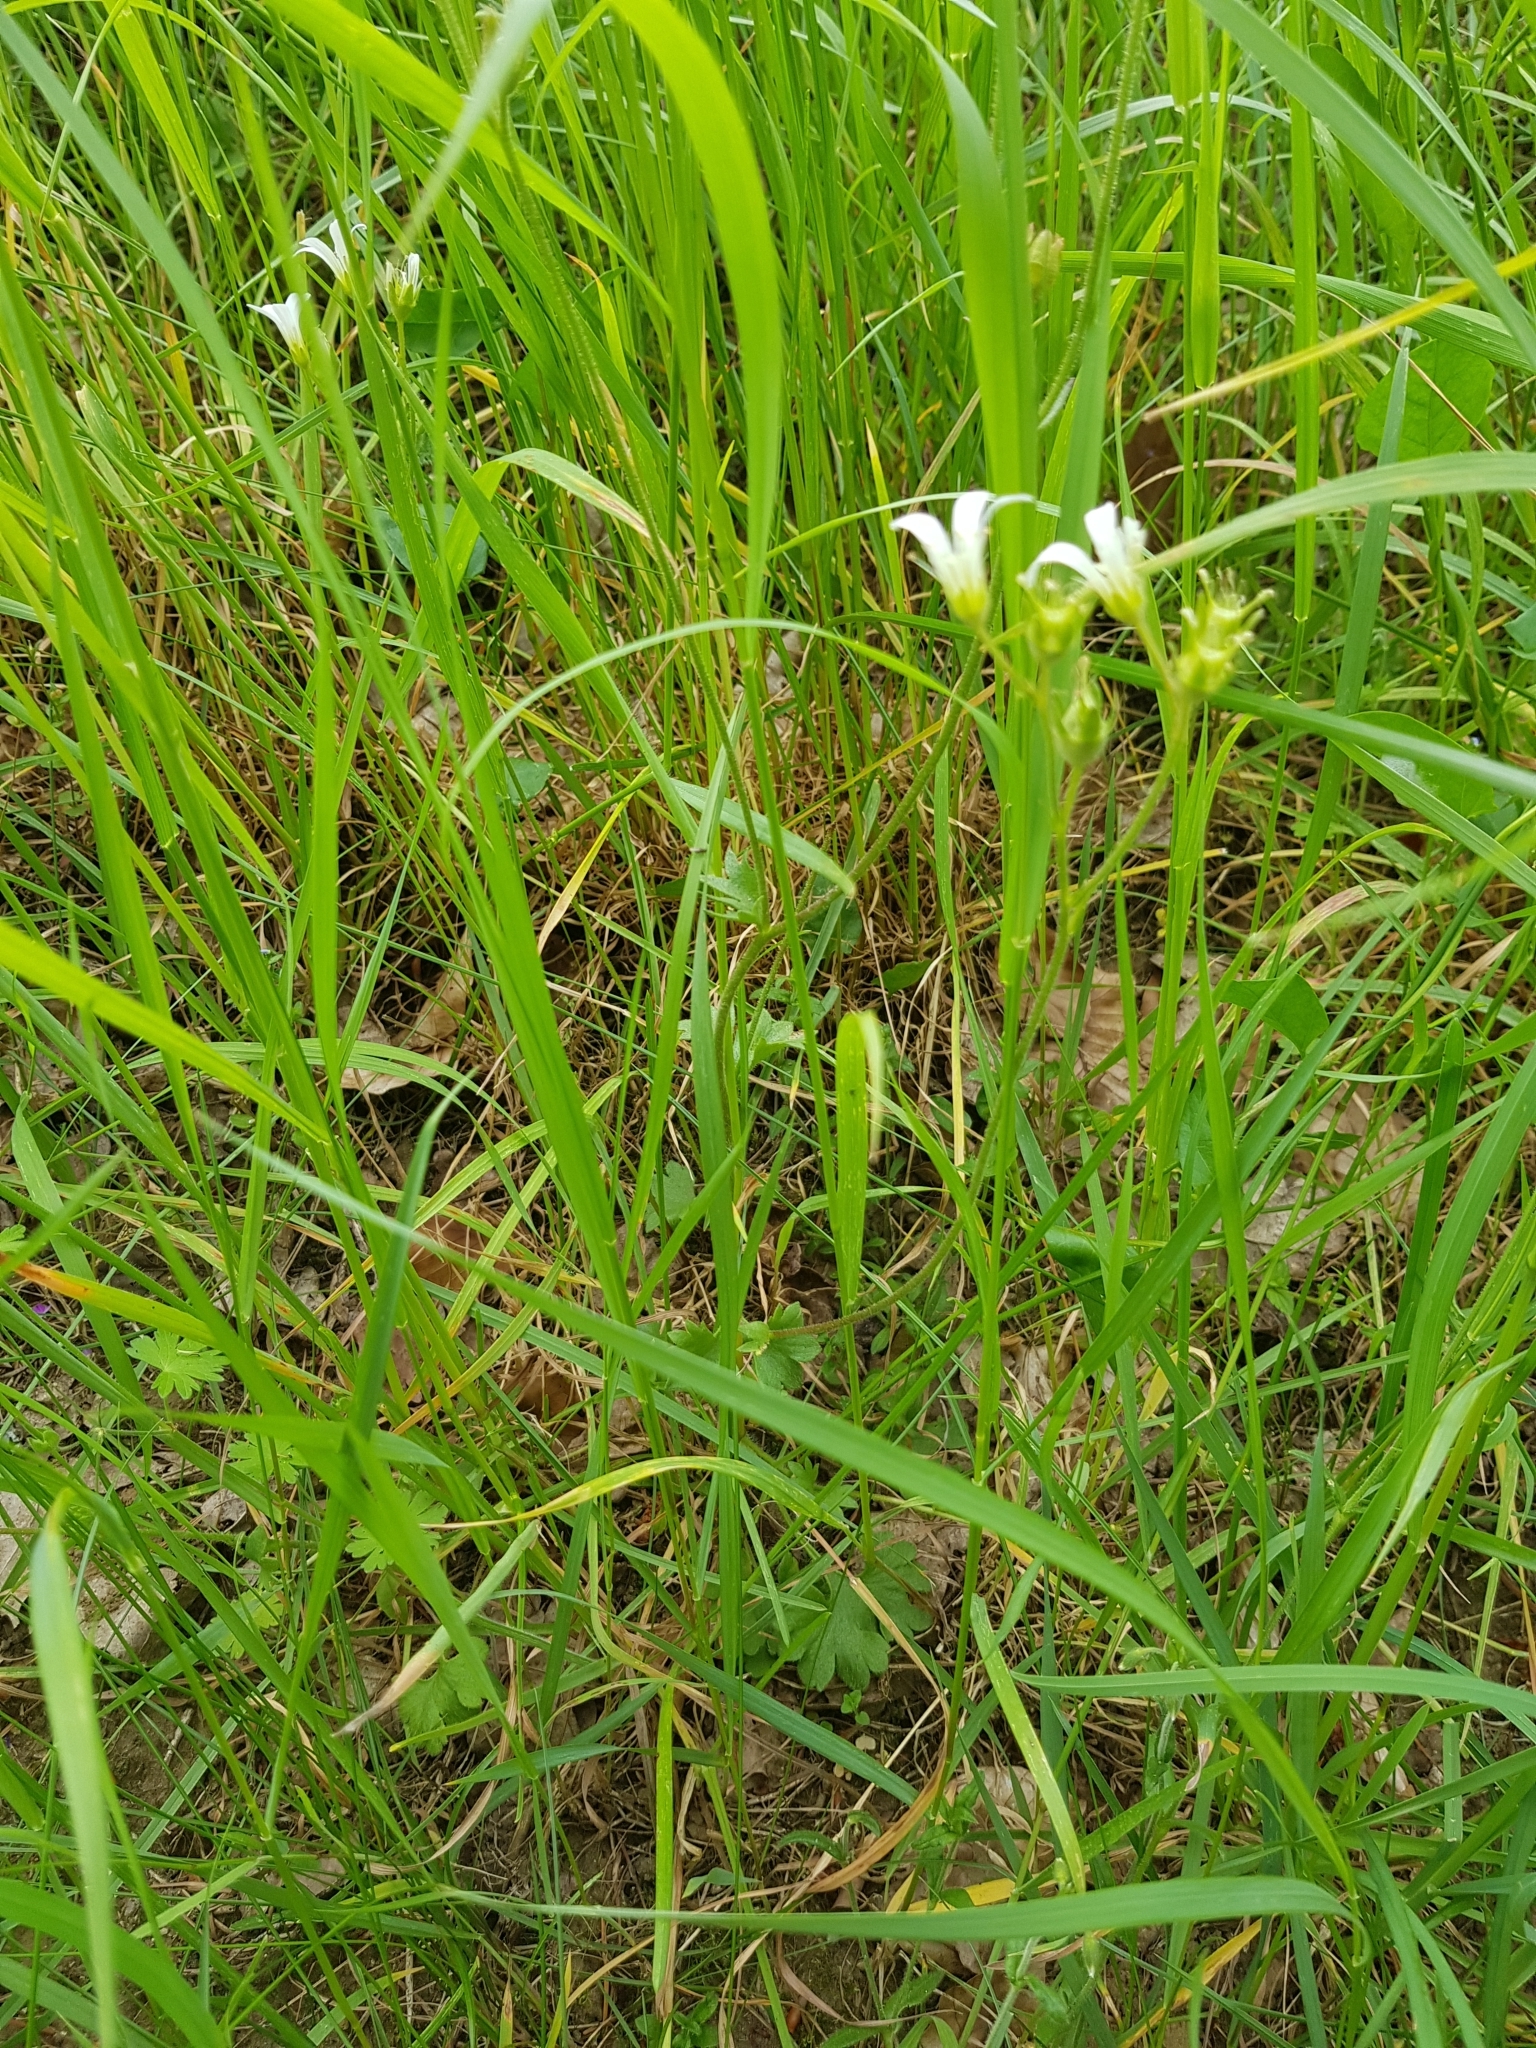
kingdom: Plantae
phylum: Tracheophyta
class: Magnoliopsida
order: Saxifragales
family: Saxifragaceae
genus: Saxifraga
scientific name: Saxifraga granulata
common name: Meadow saxifrage
